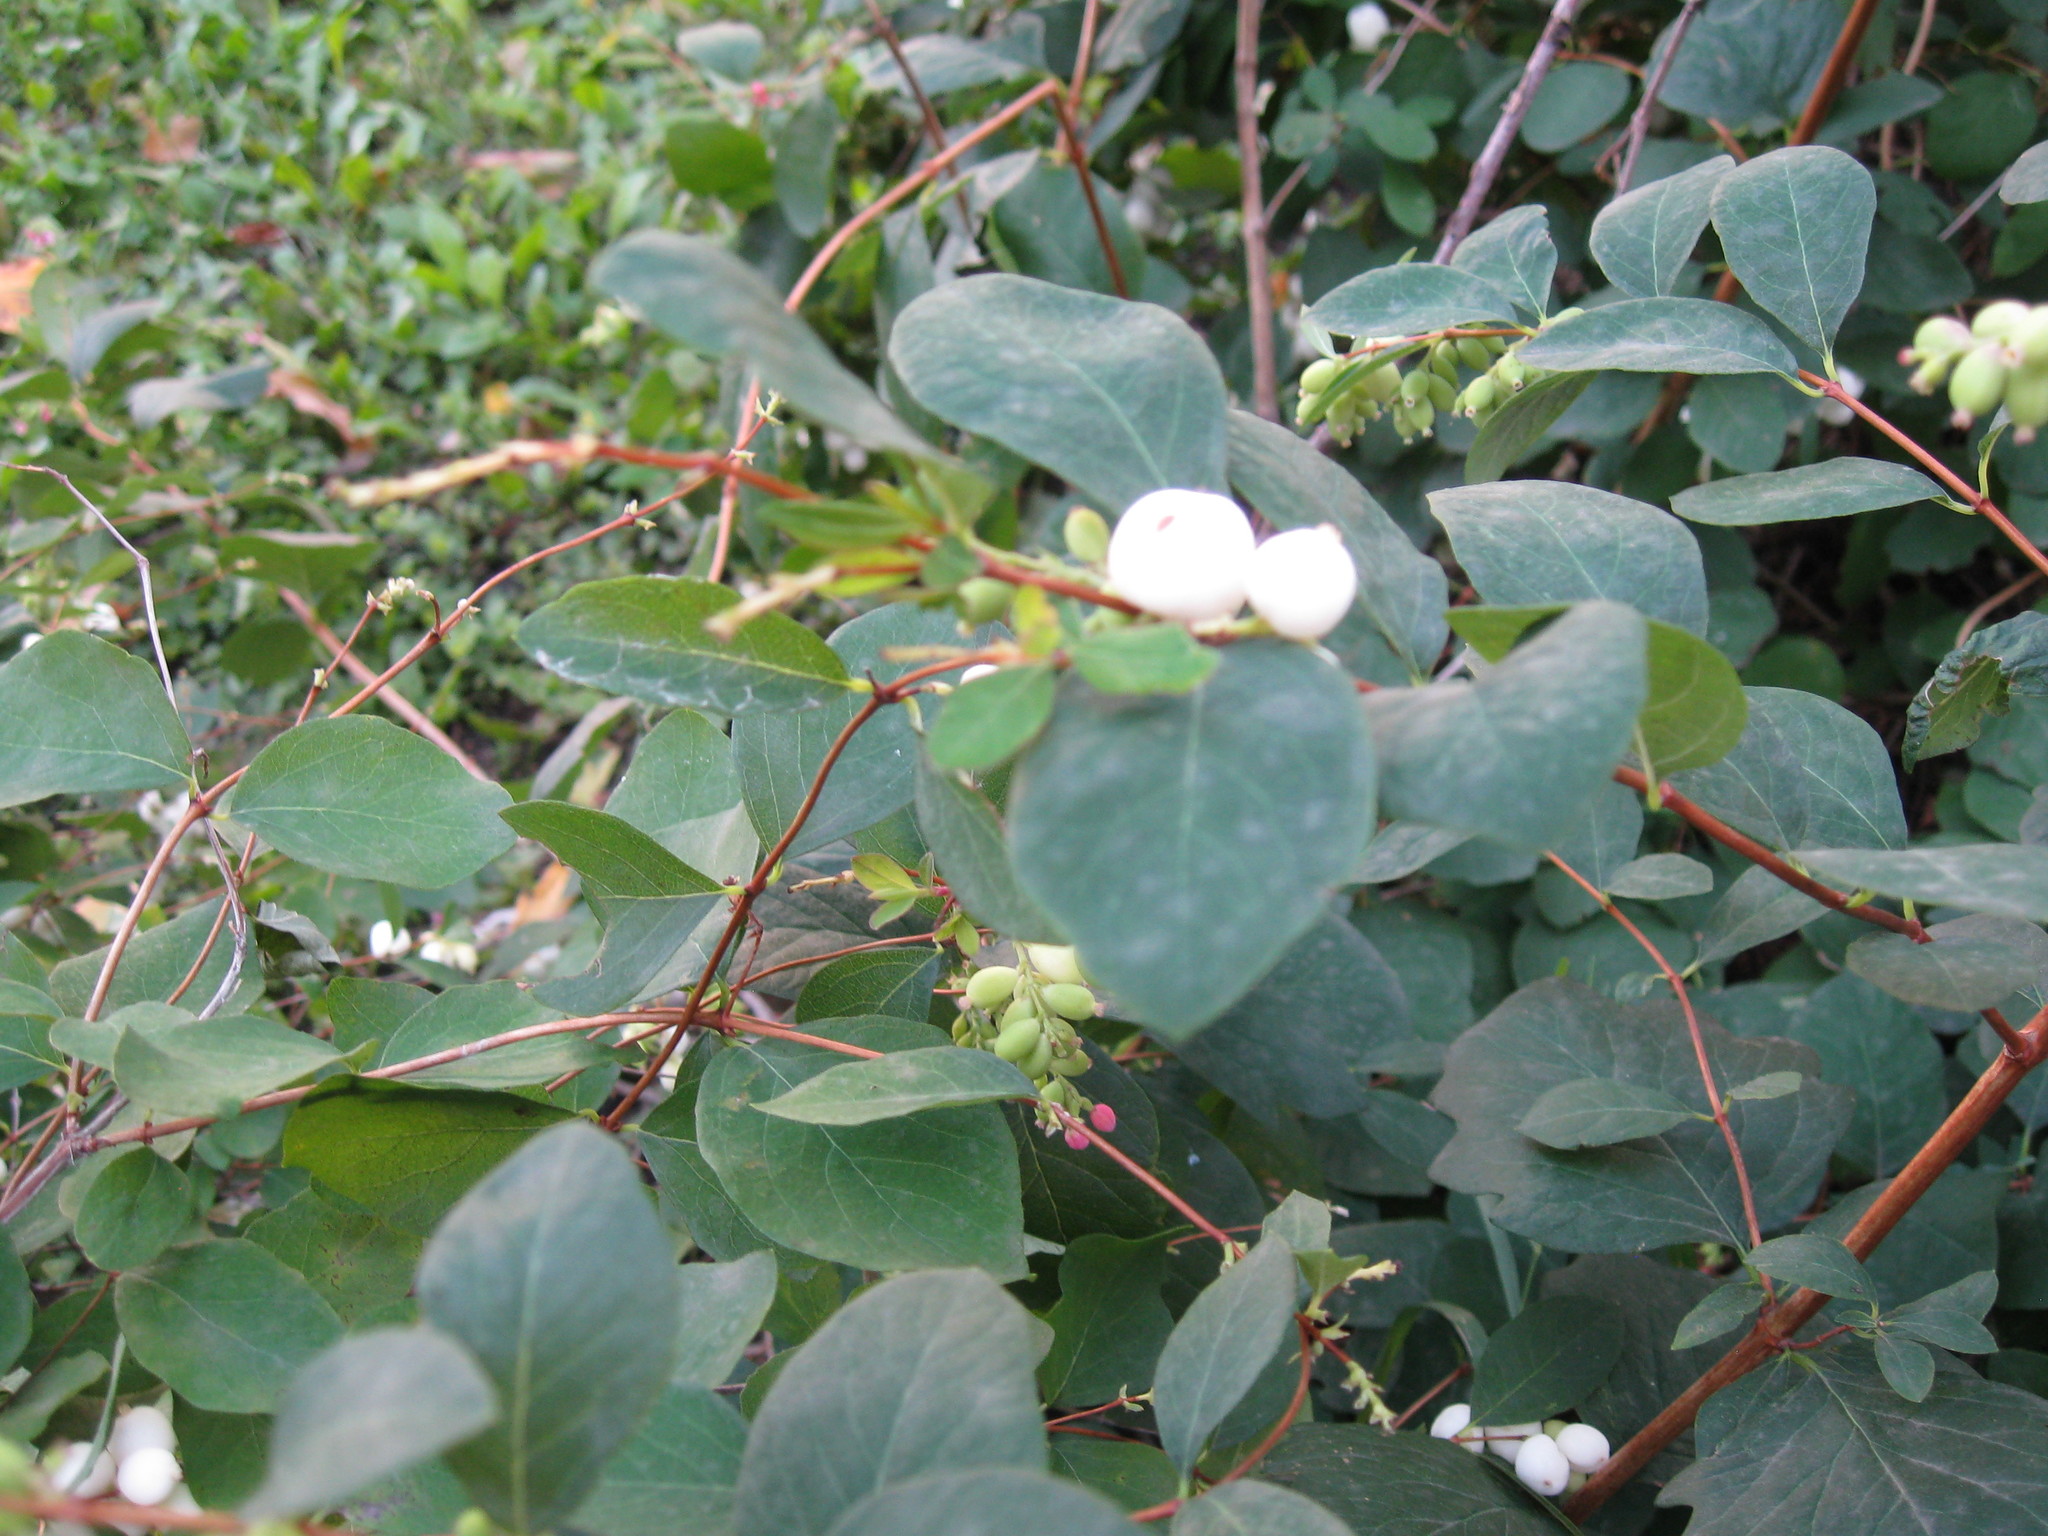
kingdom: Plantae
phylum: Tracheophyta
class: Magnoliopsida
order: Dipsacales
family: Caprifoliaceae
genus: Symphoricarpos
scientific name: Symphoricarpos albus
